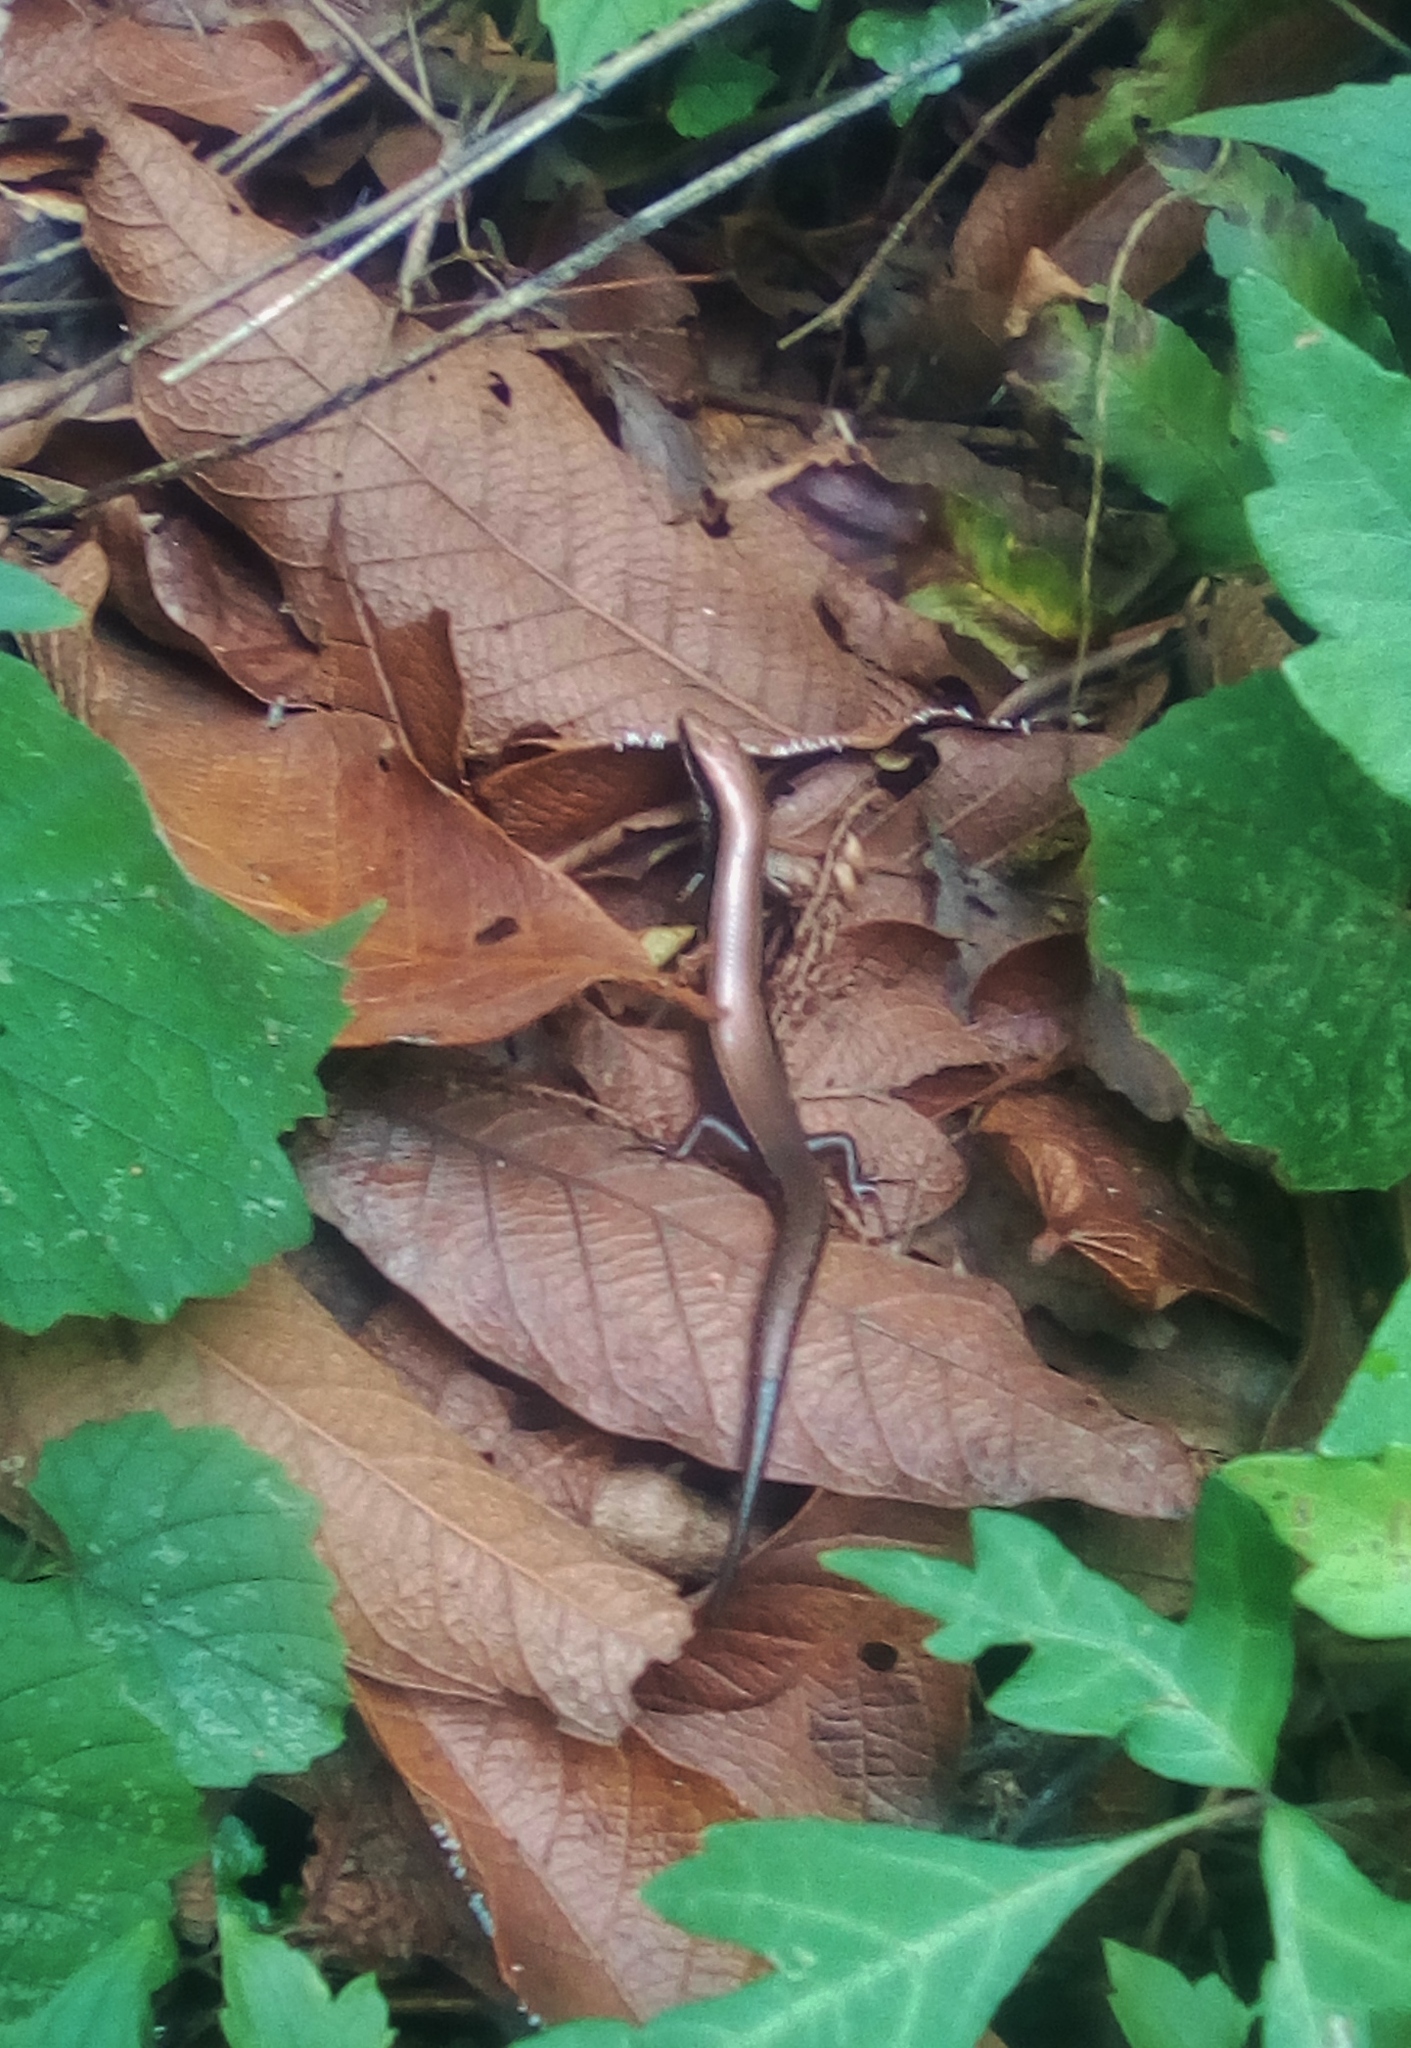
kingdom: Animalia
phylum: Chordata
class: Squamata
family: Scincidae
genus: Scincella
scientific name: Scincella
